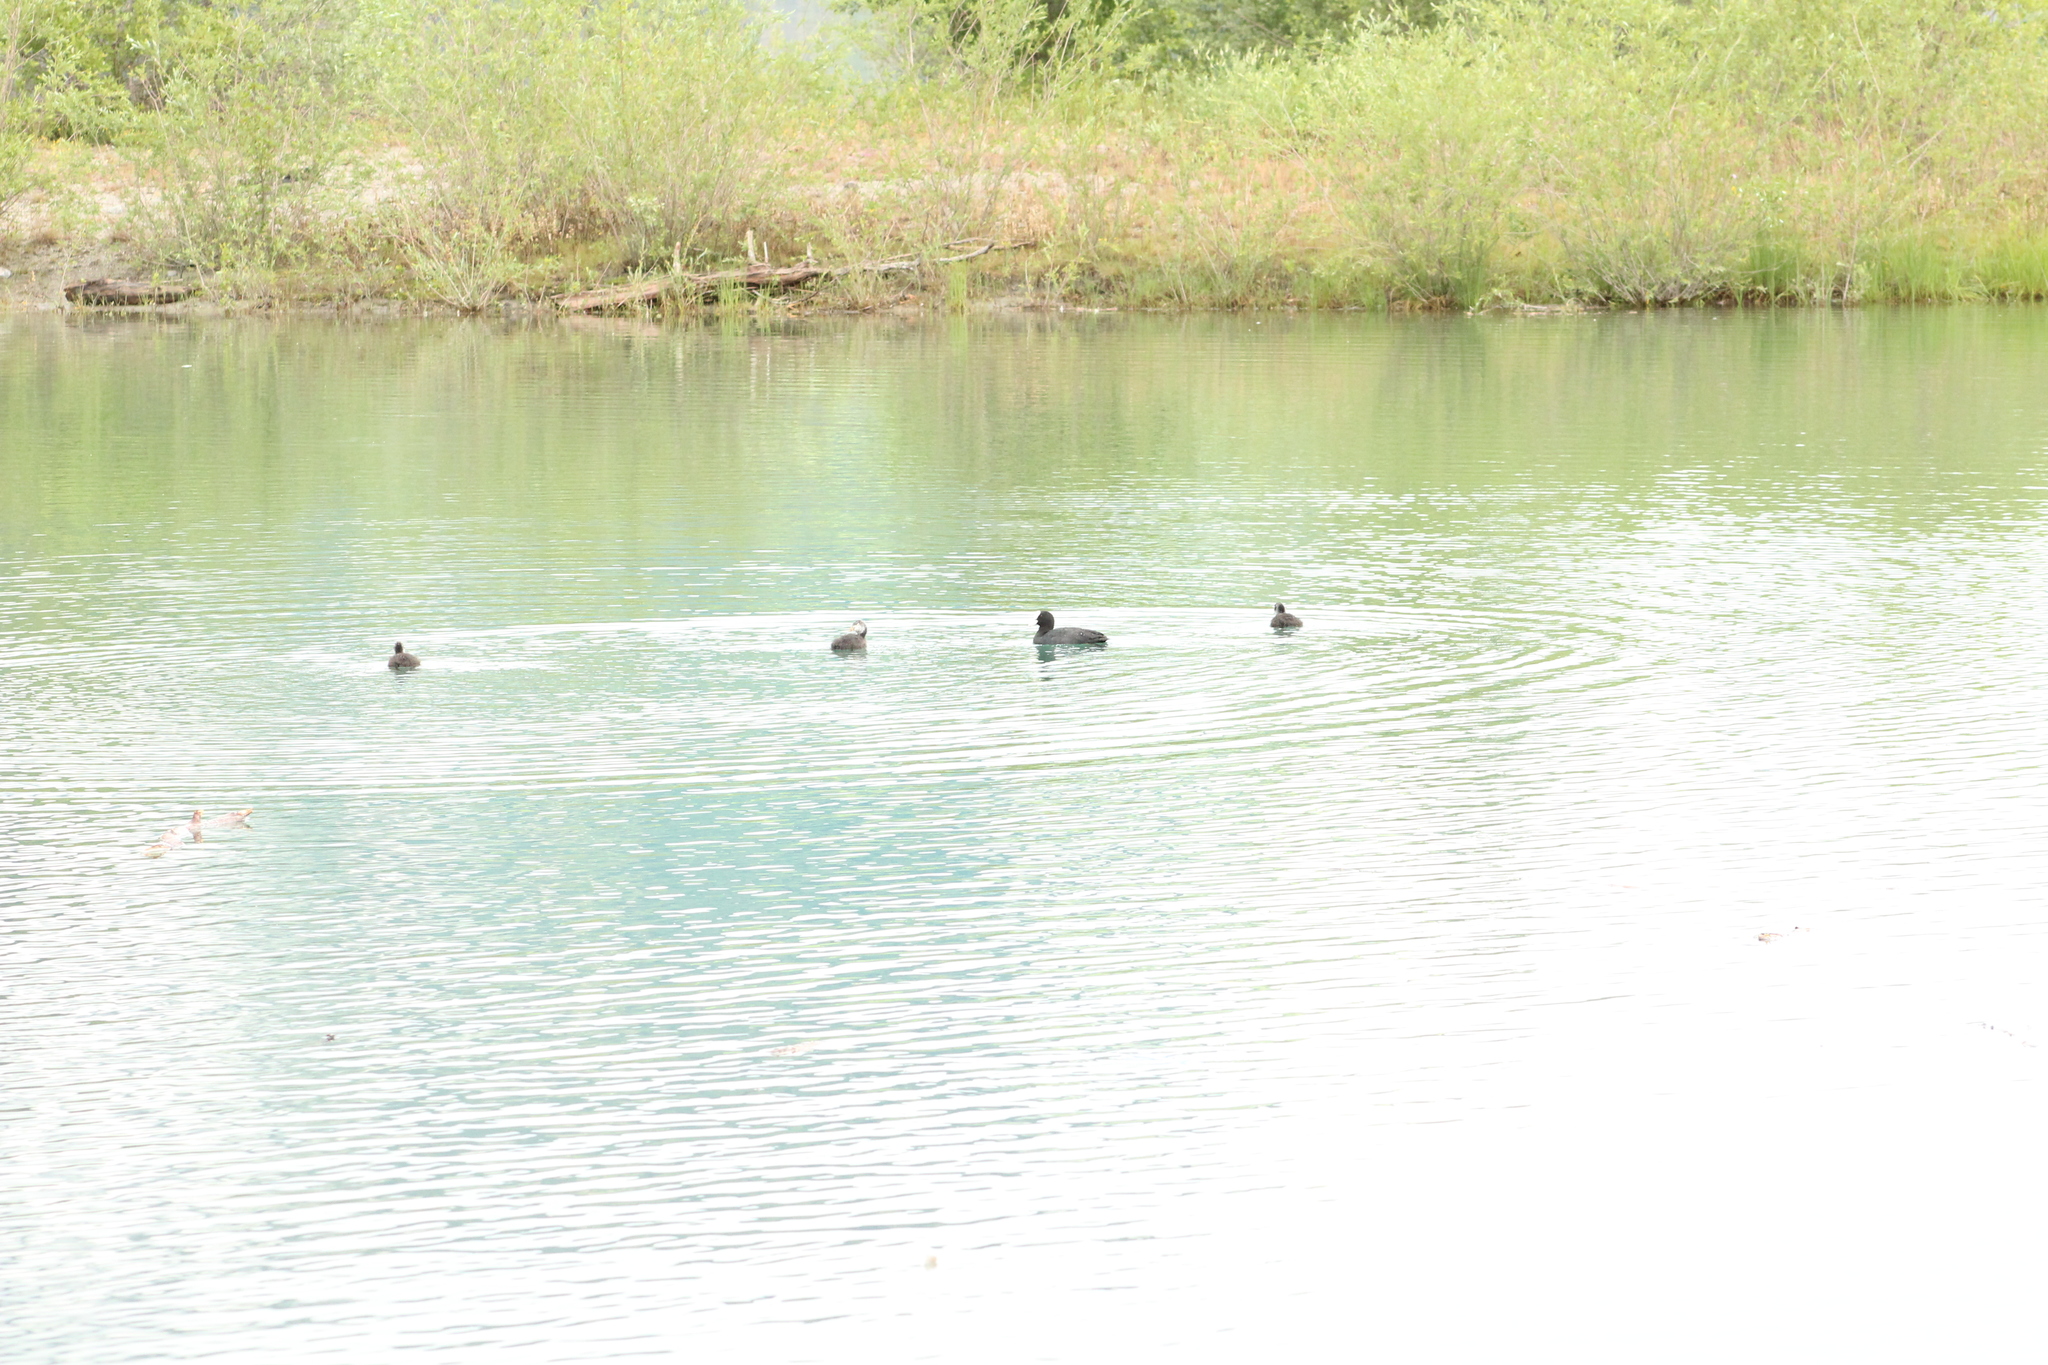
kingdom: Animalia
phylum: Chordata
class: Aves
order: Gruiformes
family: Rallidae
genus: Fulica
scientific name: Fulica atra
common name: Eurasian coot
